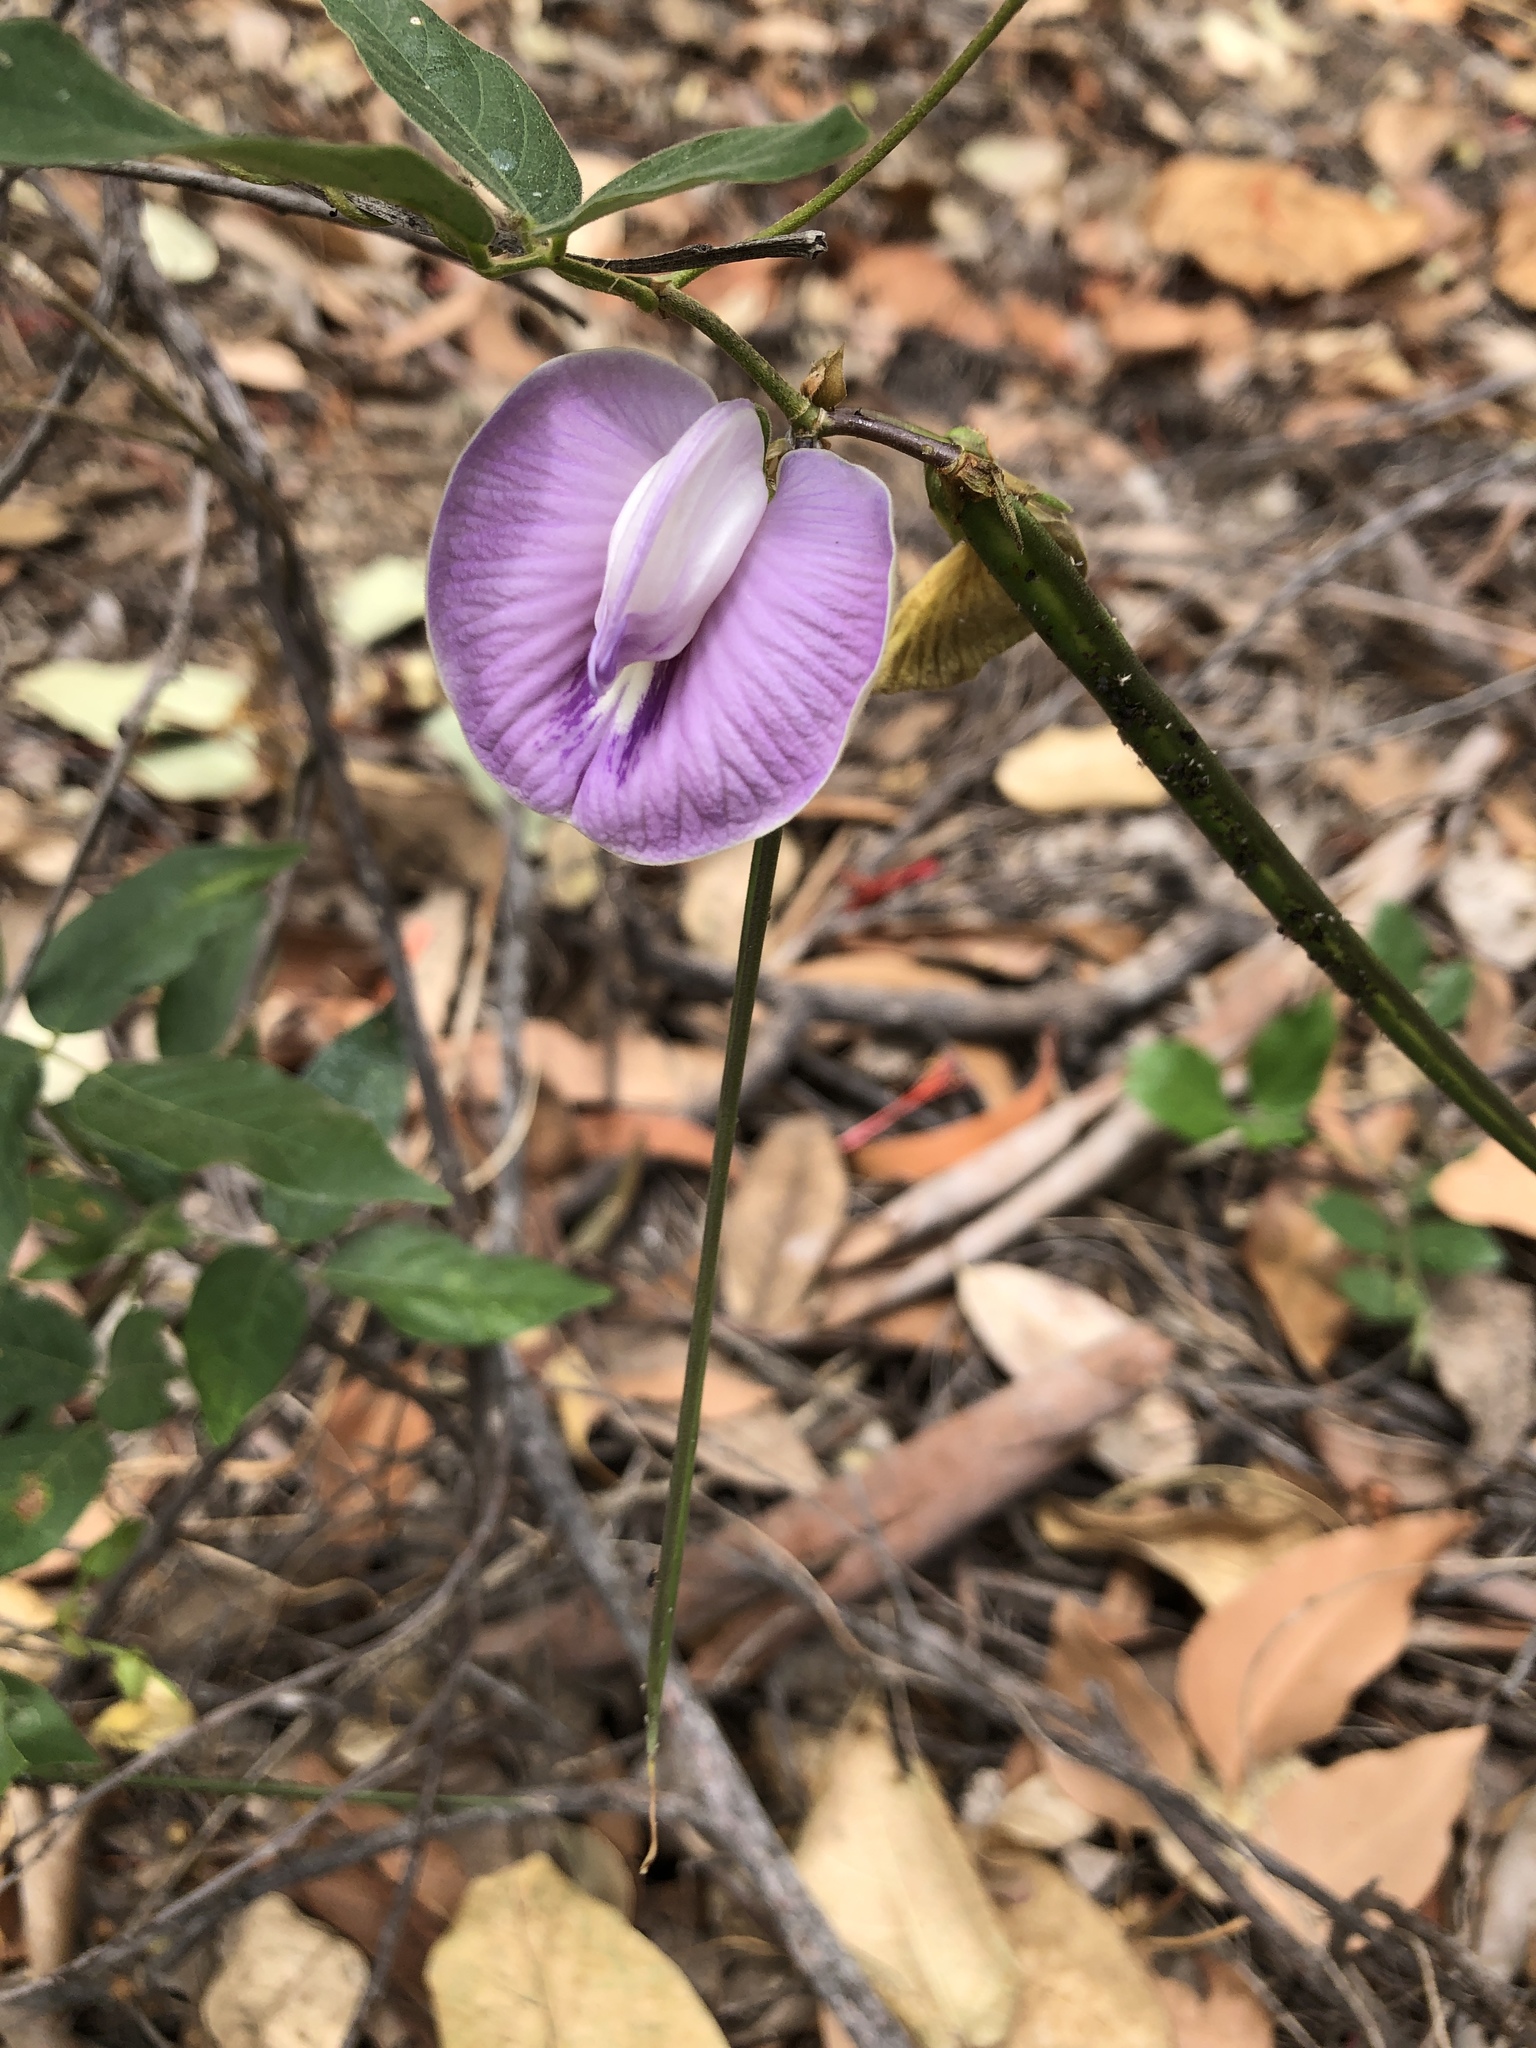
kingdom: Plantae
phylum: Tracheophyta
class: Magnoliopsida
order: Fabales
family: Fabaceae
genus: Centrosema
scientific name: Centrosema molle
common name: Soft butterfly pea
